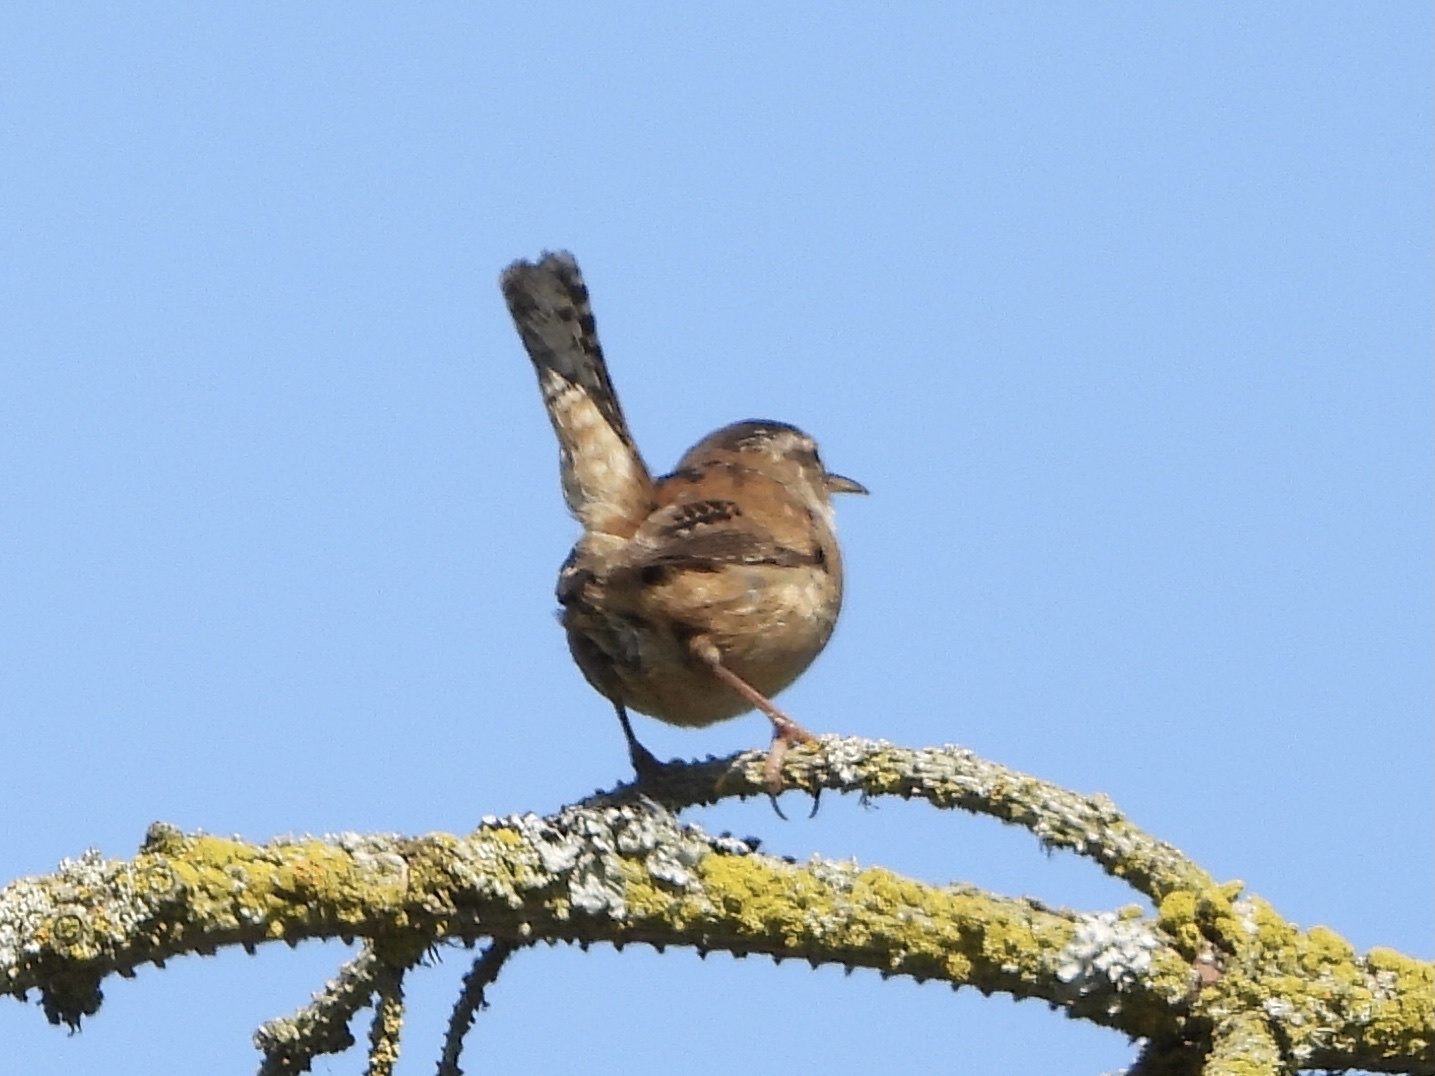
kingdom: Animalia
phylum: Chordata
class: Aves
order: Passeriformes
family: Troglodytidae
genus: Cistothorus
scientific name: Cistothorus palustris
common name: Marsh wren
